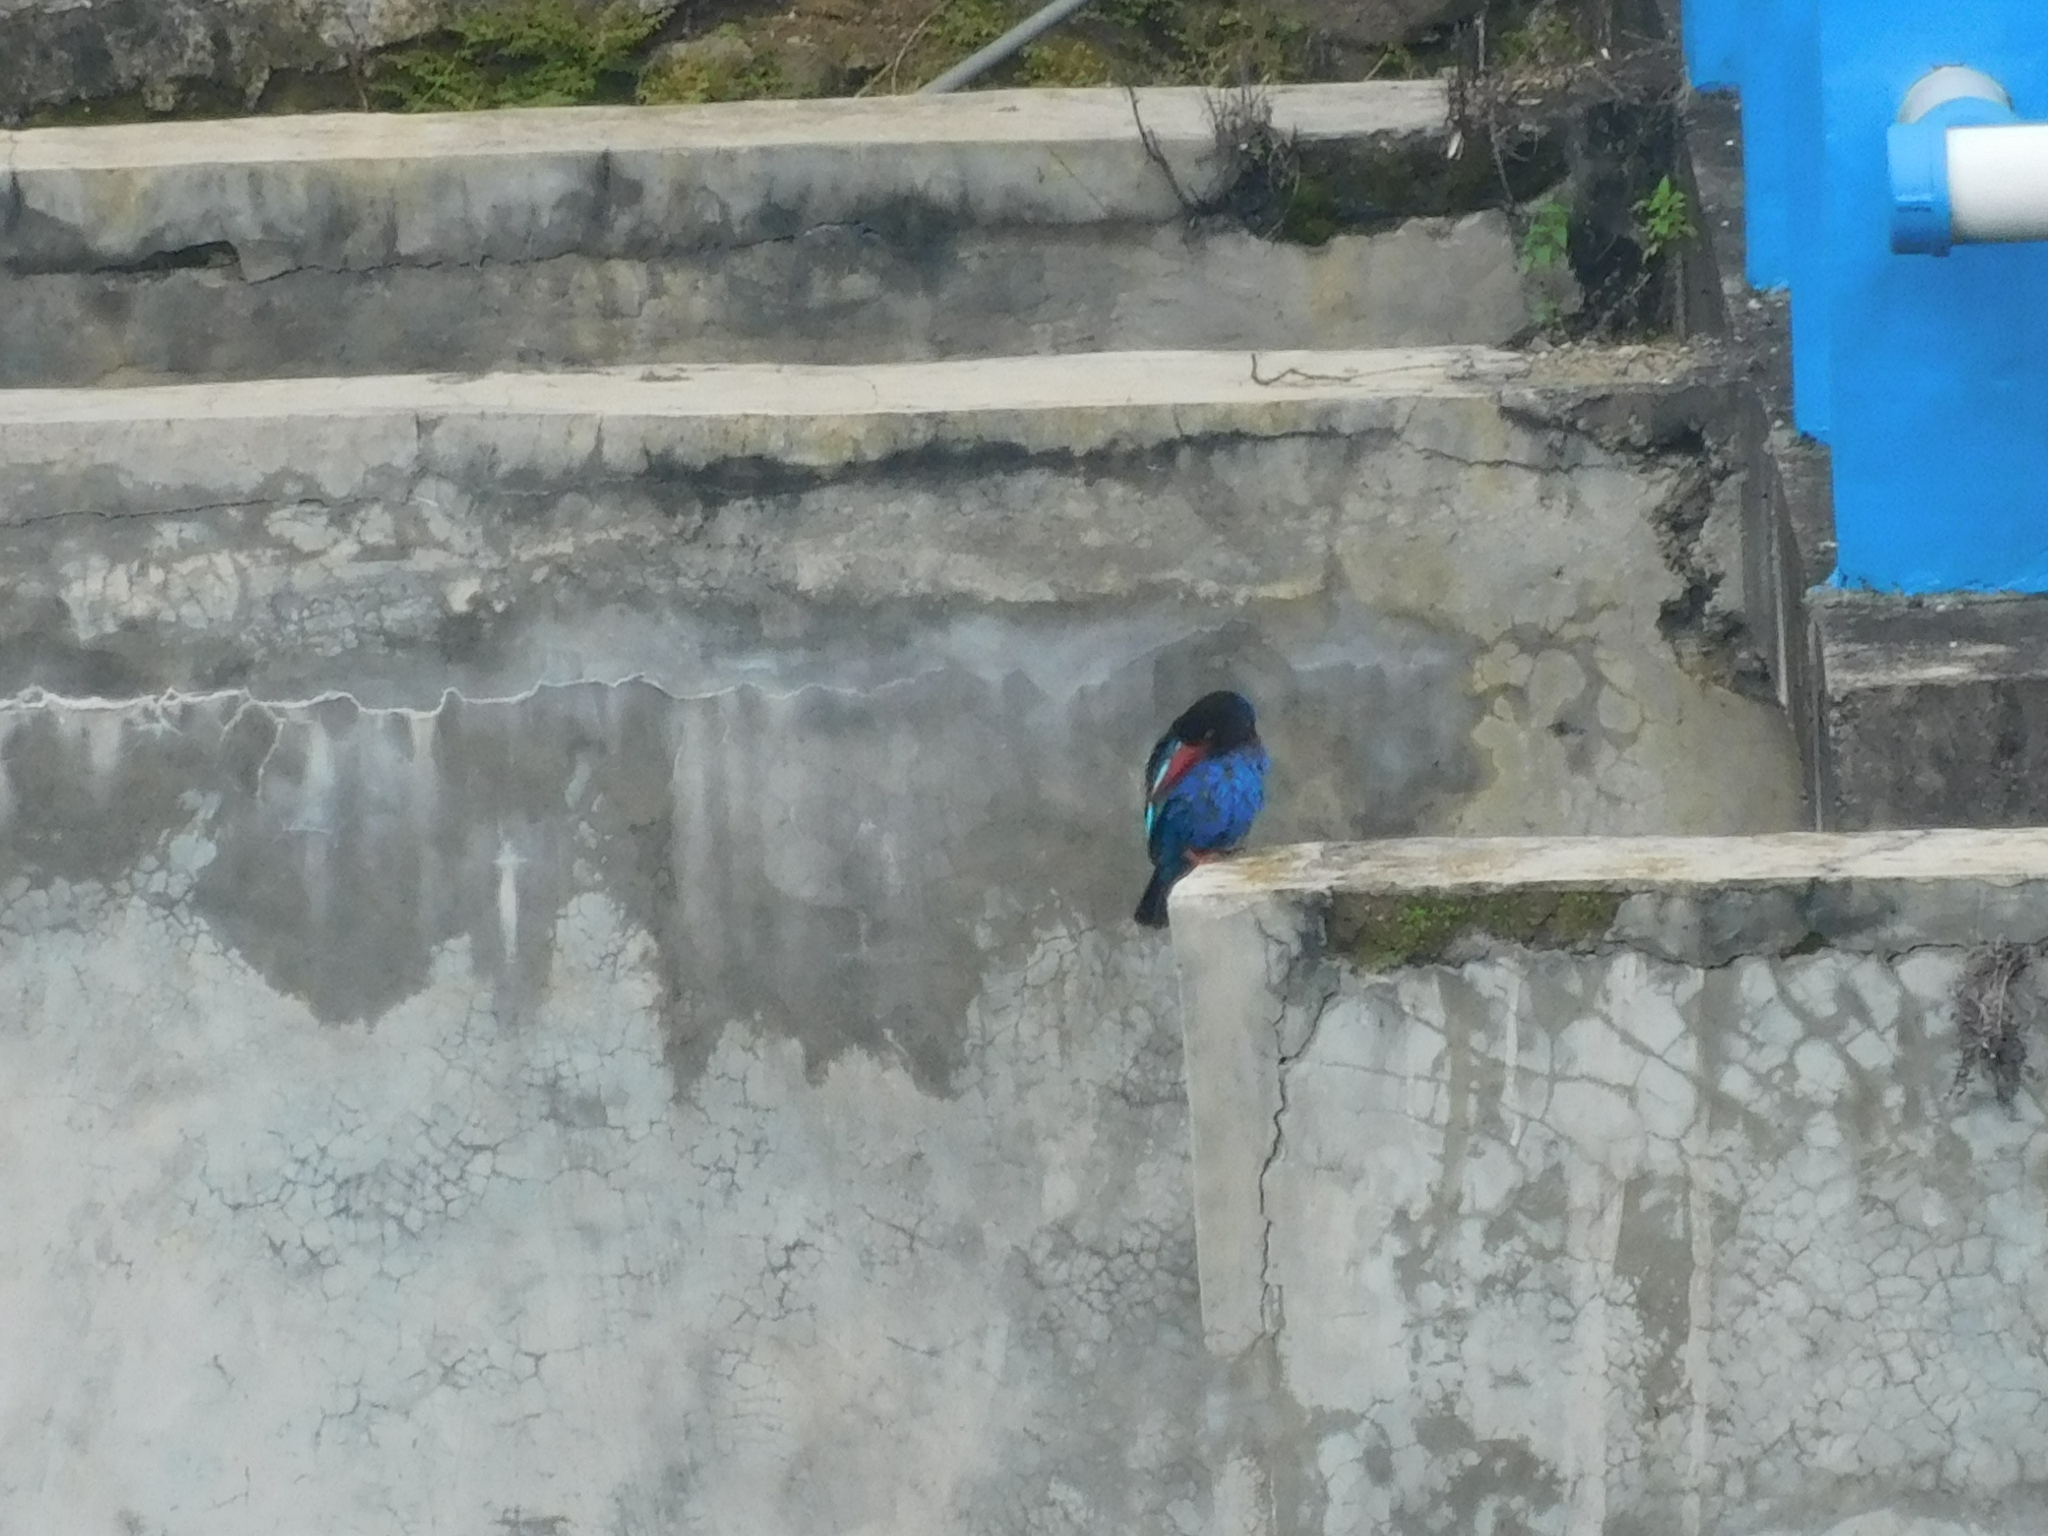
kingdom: Animalia
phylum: Chordata
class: Aves
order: Coraciiformes
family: Alcedinidae
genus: Halcyon
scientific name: Halcyon cyanoventris
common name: Javan kingfisher
